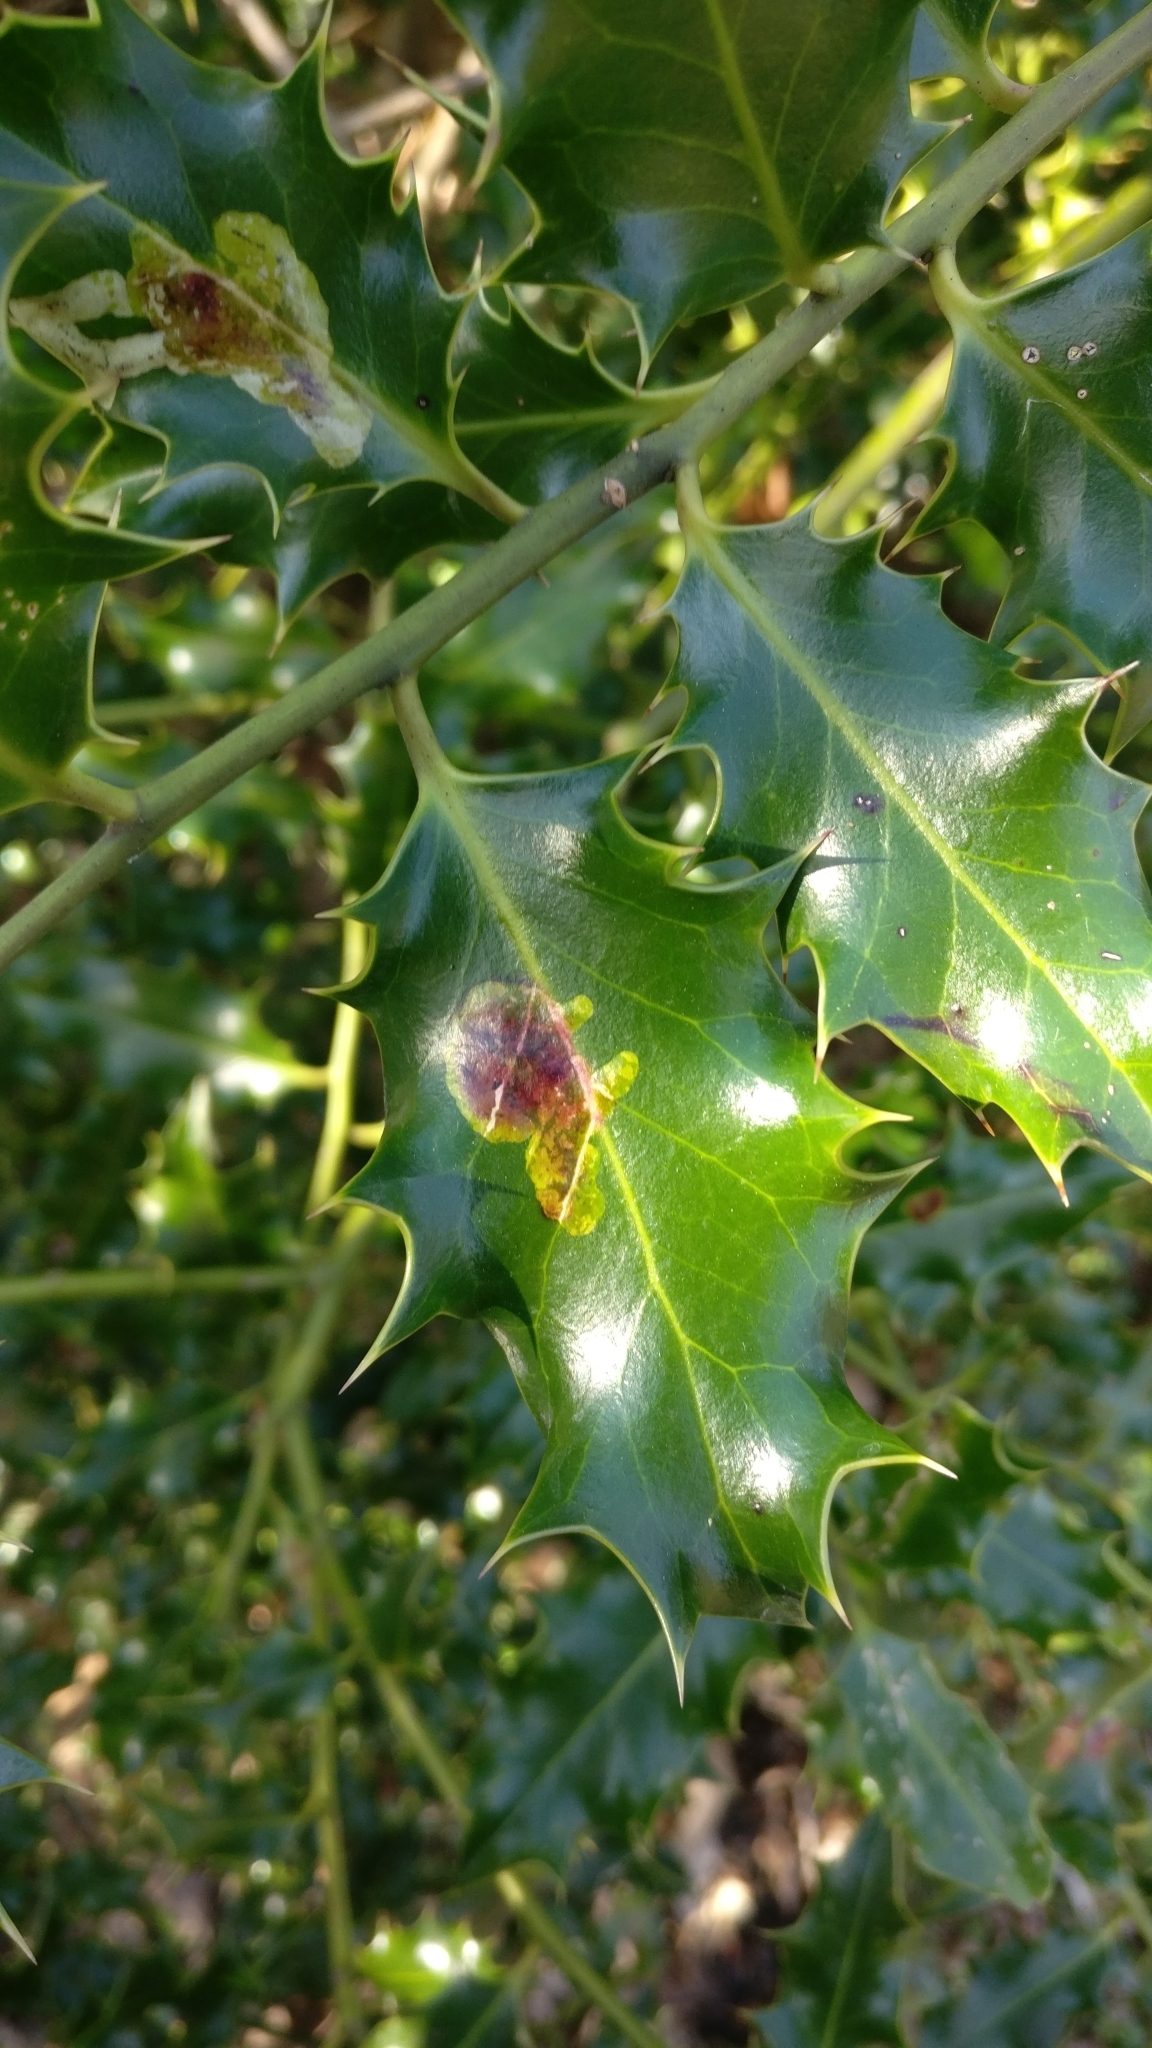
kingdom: Animalia
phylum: Arthropoda
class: Insecta
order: Diptera
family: Agromyzidae
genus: Phytomyza
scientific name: Phytomyza ilicis
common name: Holly leafminer
